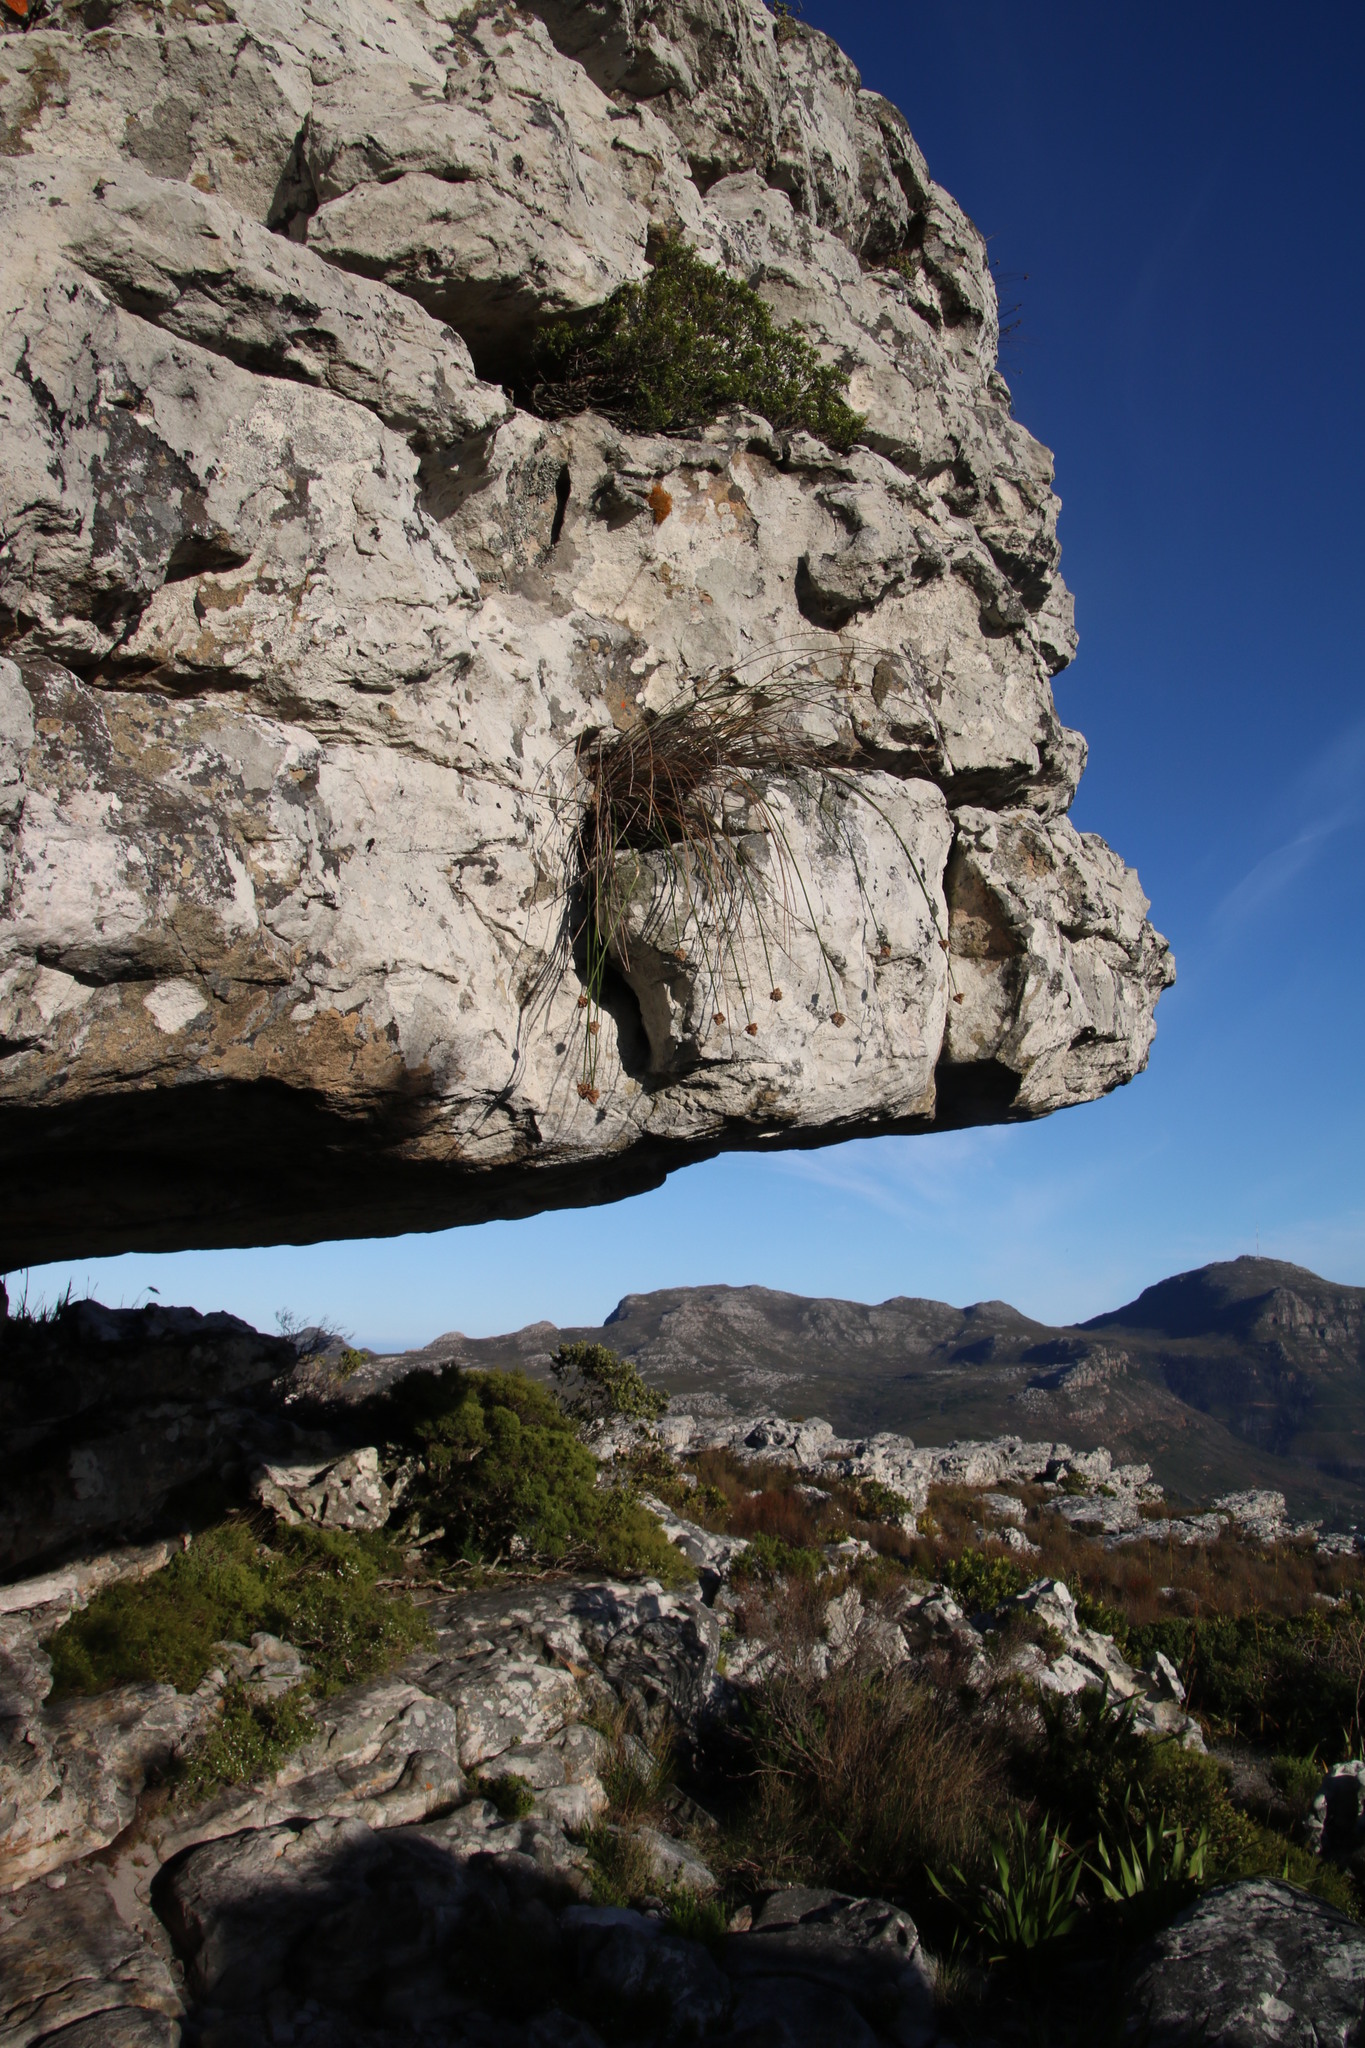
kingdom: Plantae
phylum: Tracheophyta
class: Liliopsida
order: Poales
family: Cyperaceae
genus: Ficinia
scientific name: Ficinia brevifolia
